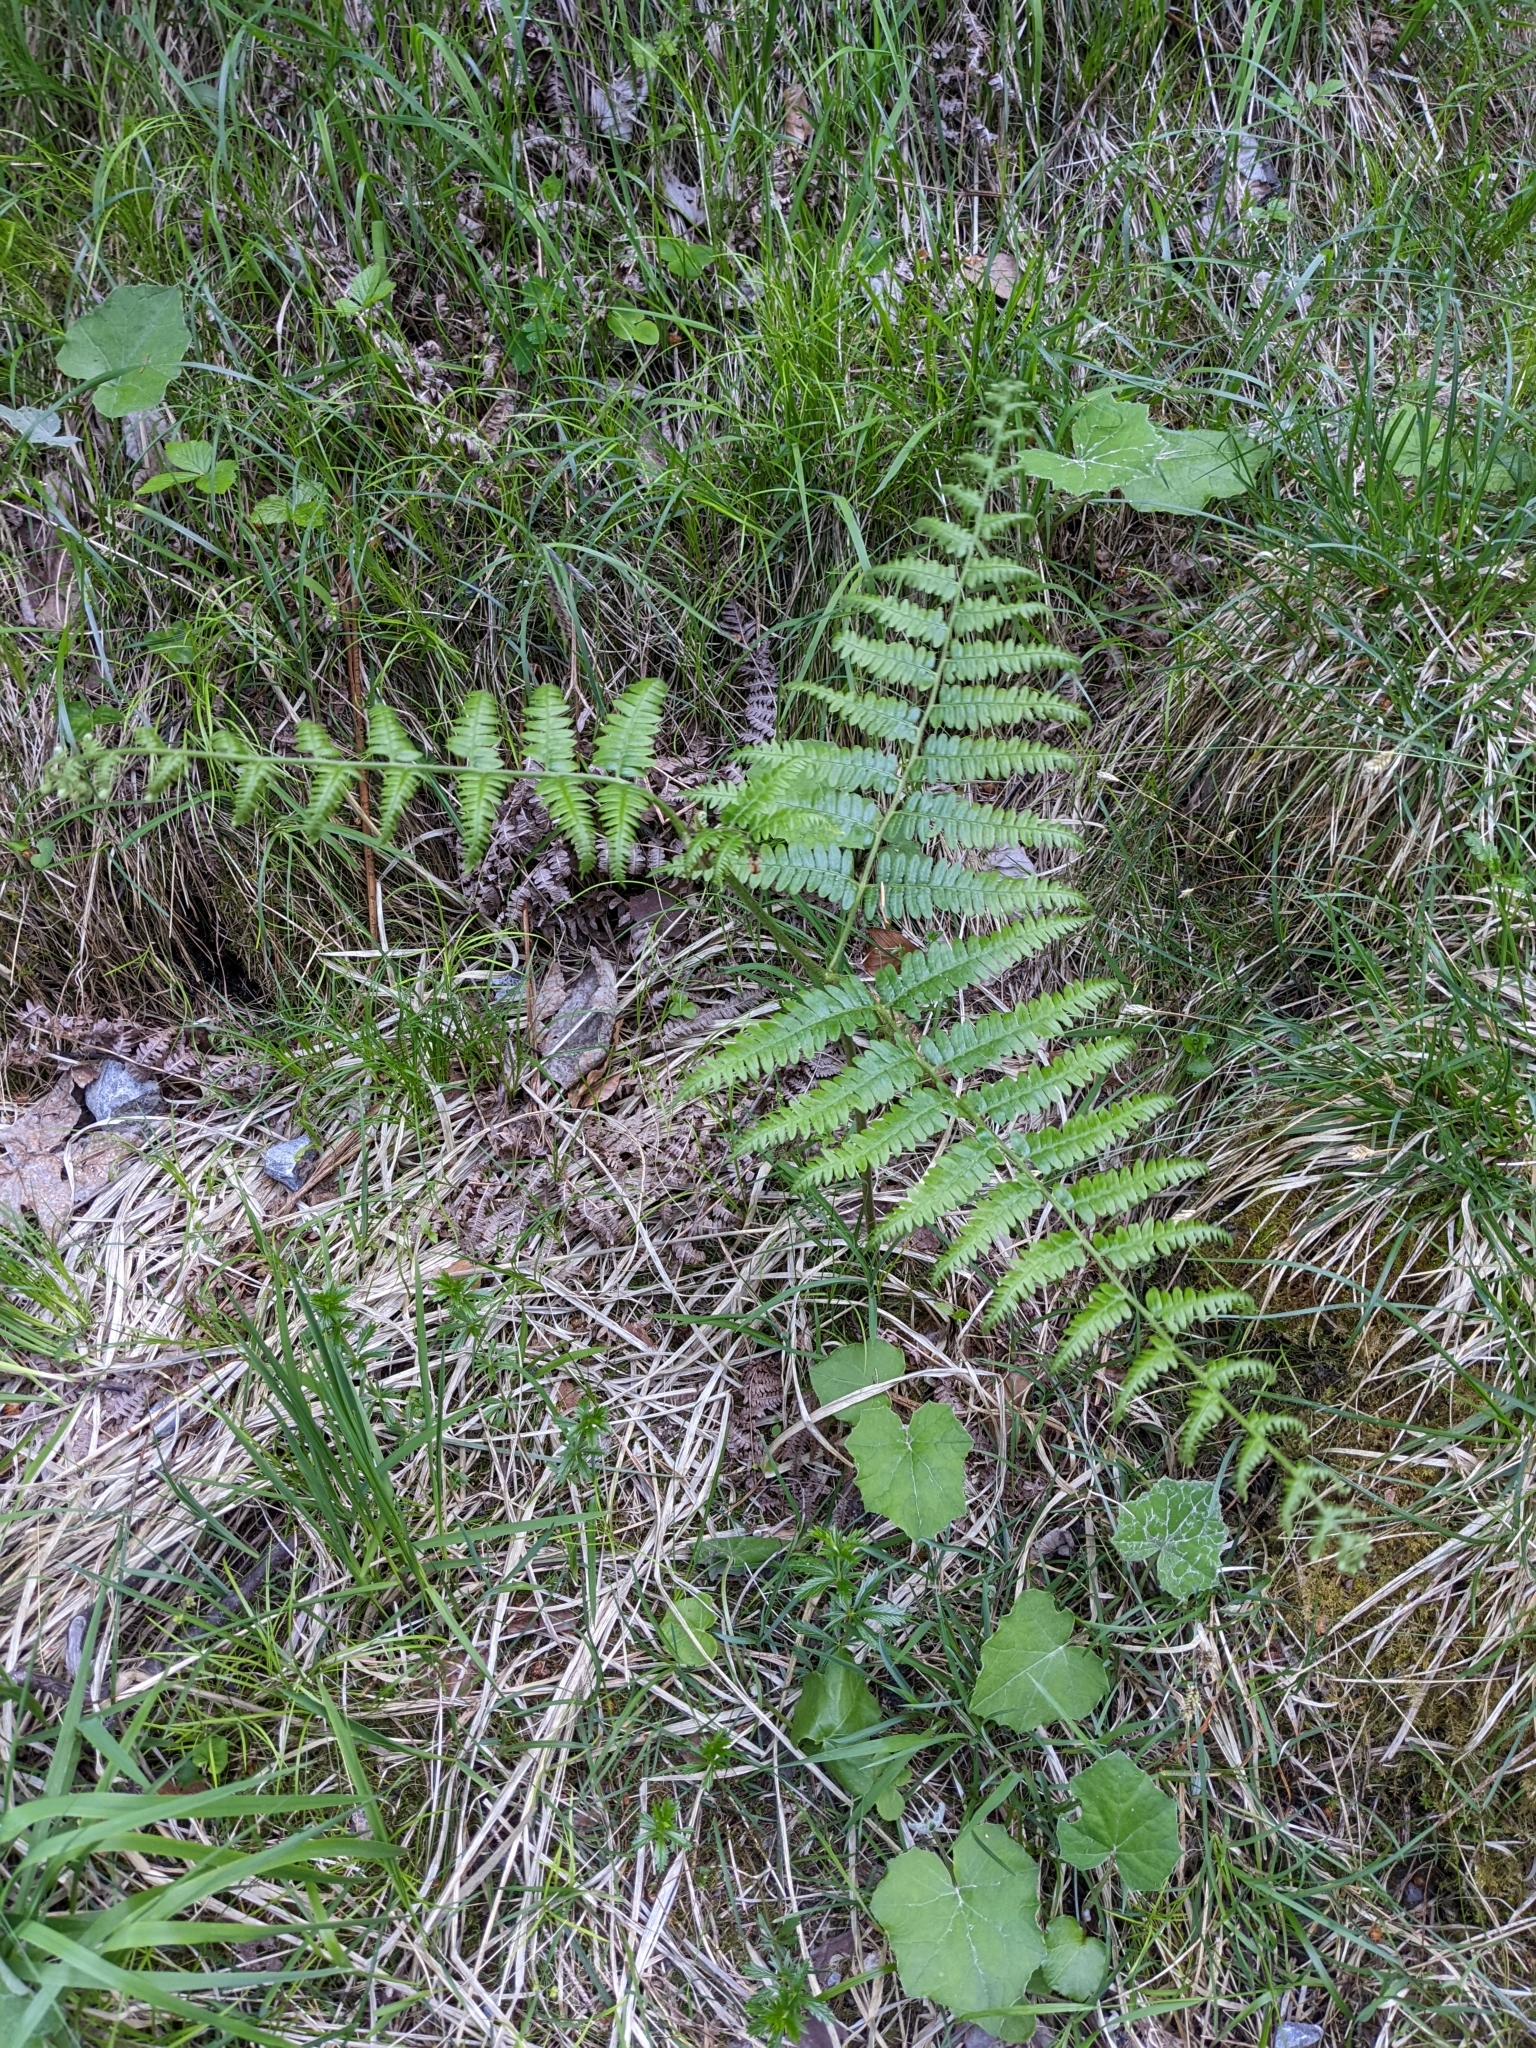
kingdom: Plantae
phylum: Tracheophyta
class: Polypodiopsida
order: Polypodiales
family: Dennstaedtiaceae
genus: Pteridium
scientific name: Pteridium aquilinum
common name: Bracken
